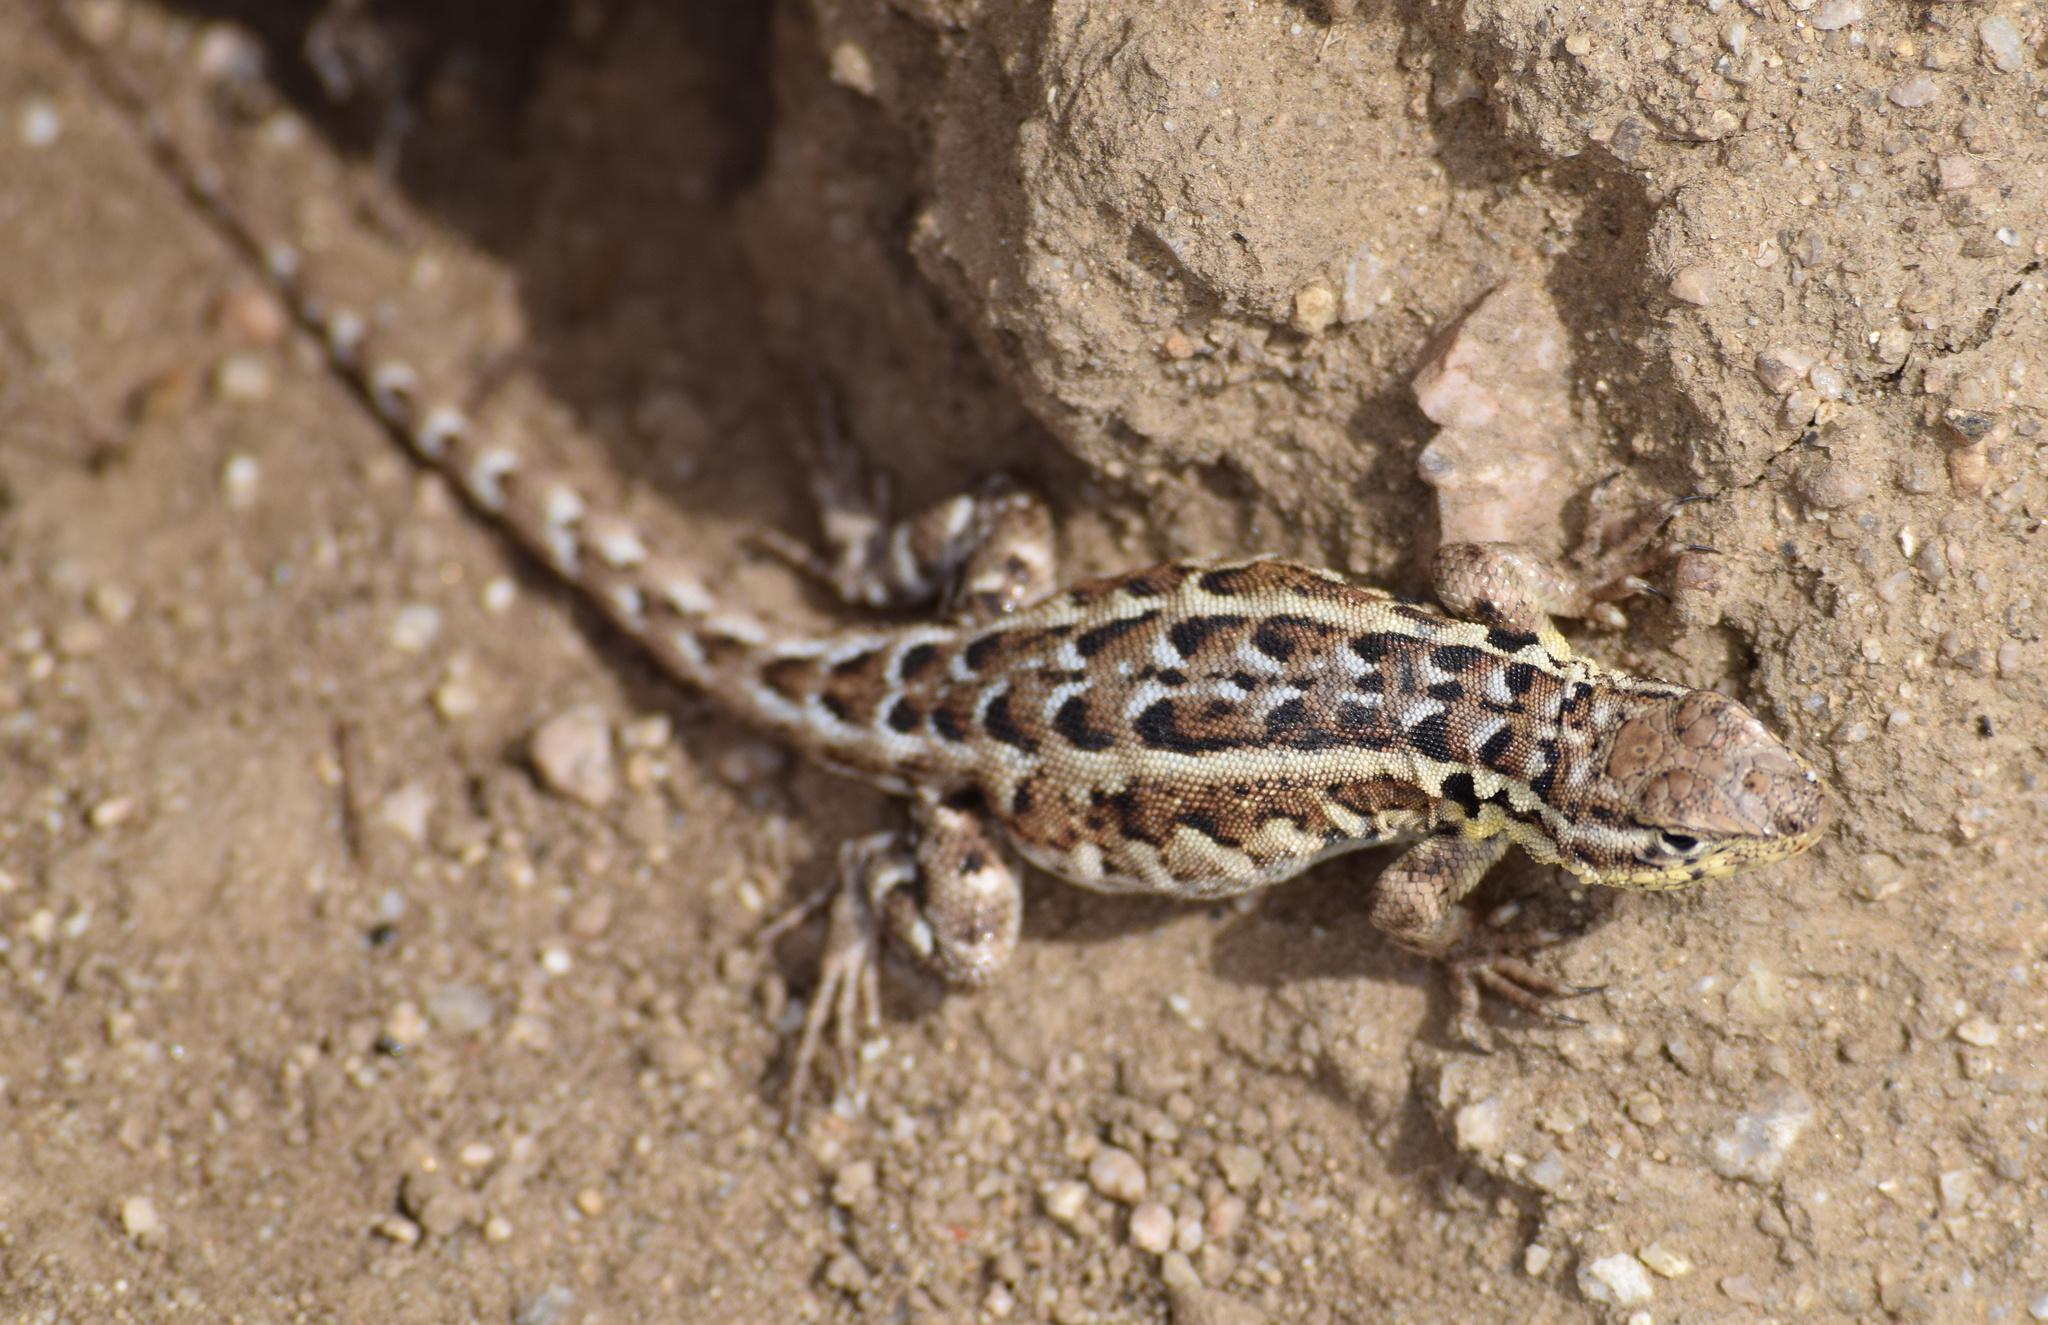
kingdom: Animalia
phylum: Chordata
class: Squamata
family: Phrynosomatidae
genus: Uta
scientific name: Uta stansburiana
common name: Side-blotched lizard
